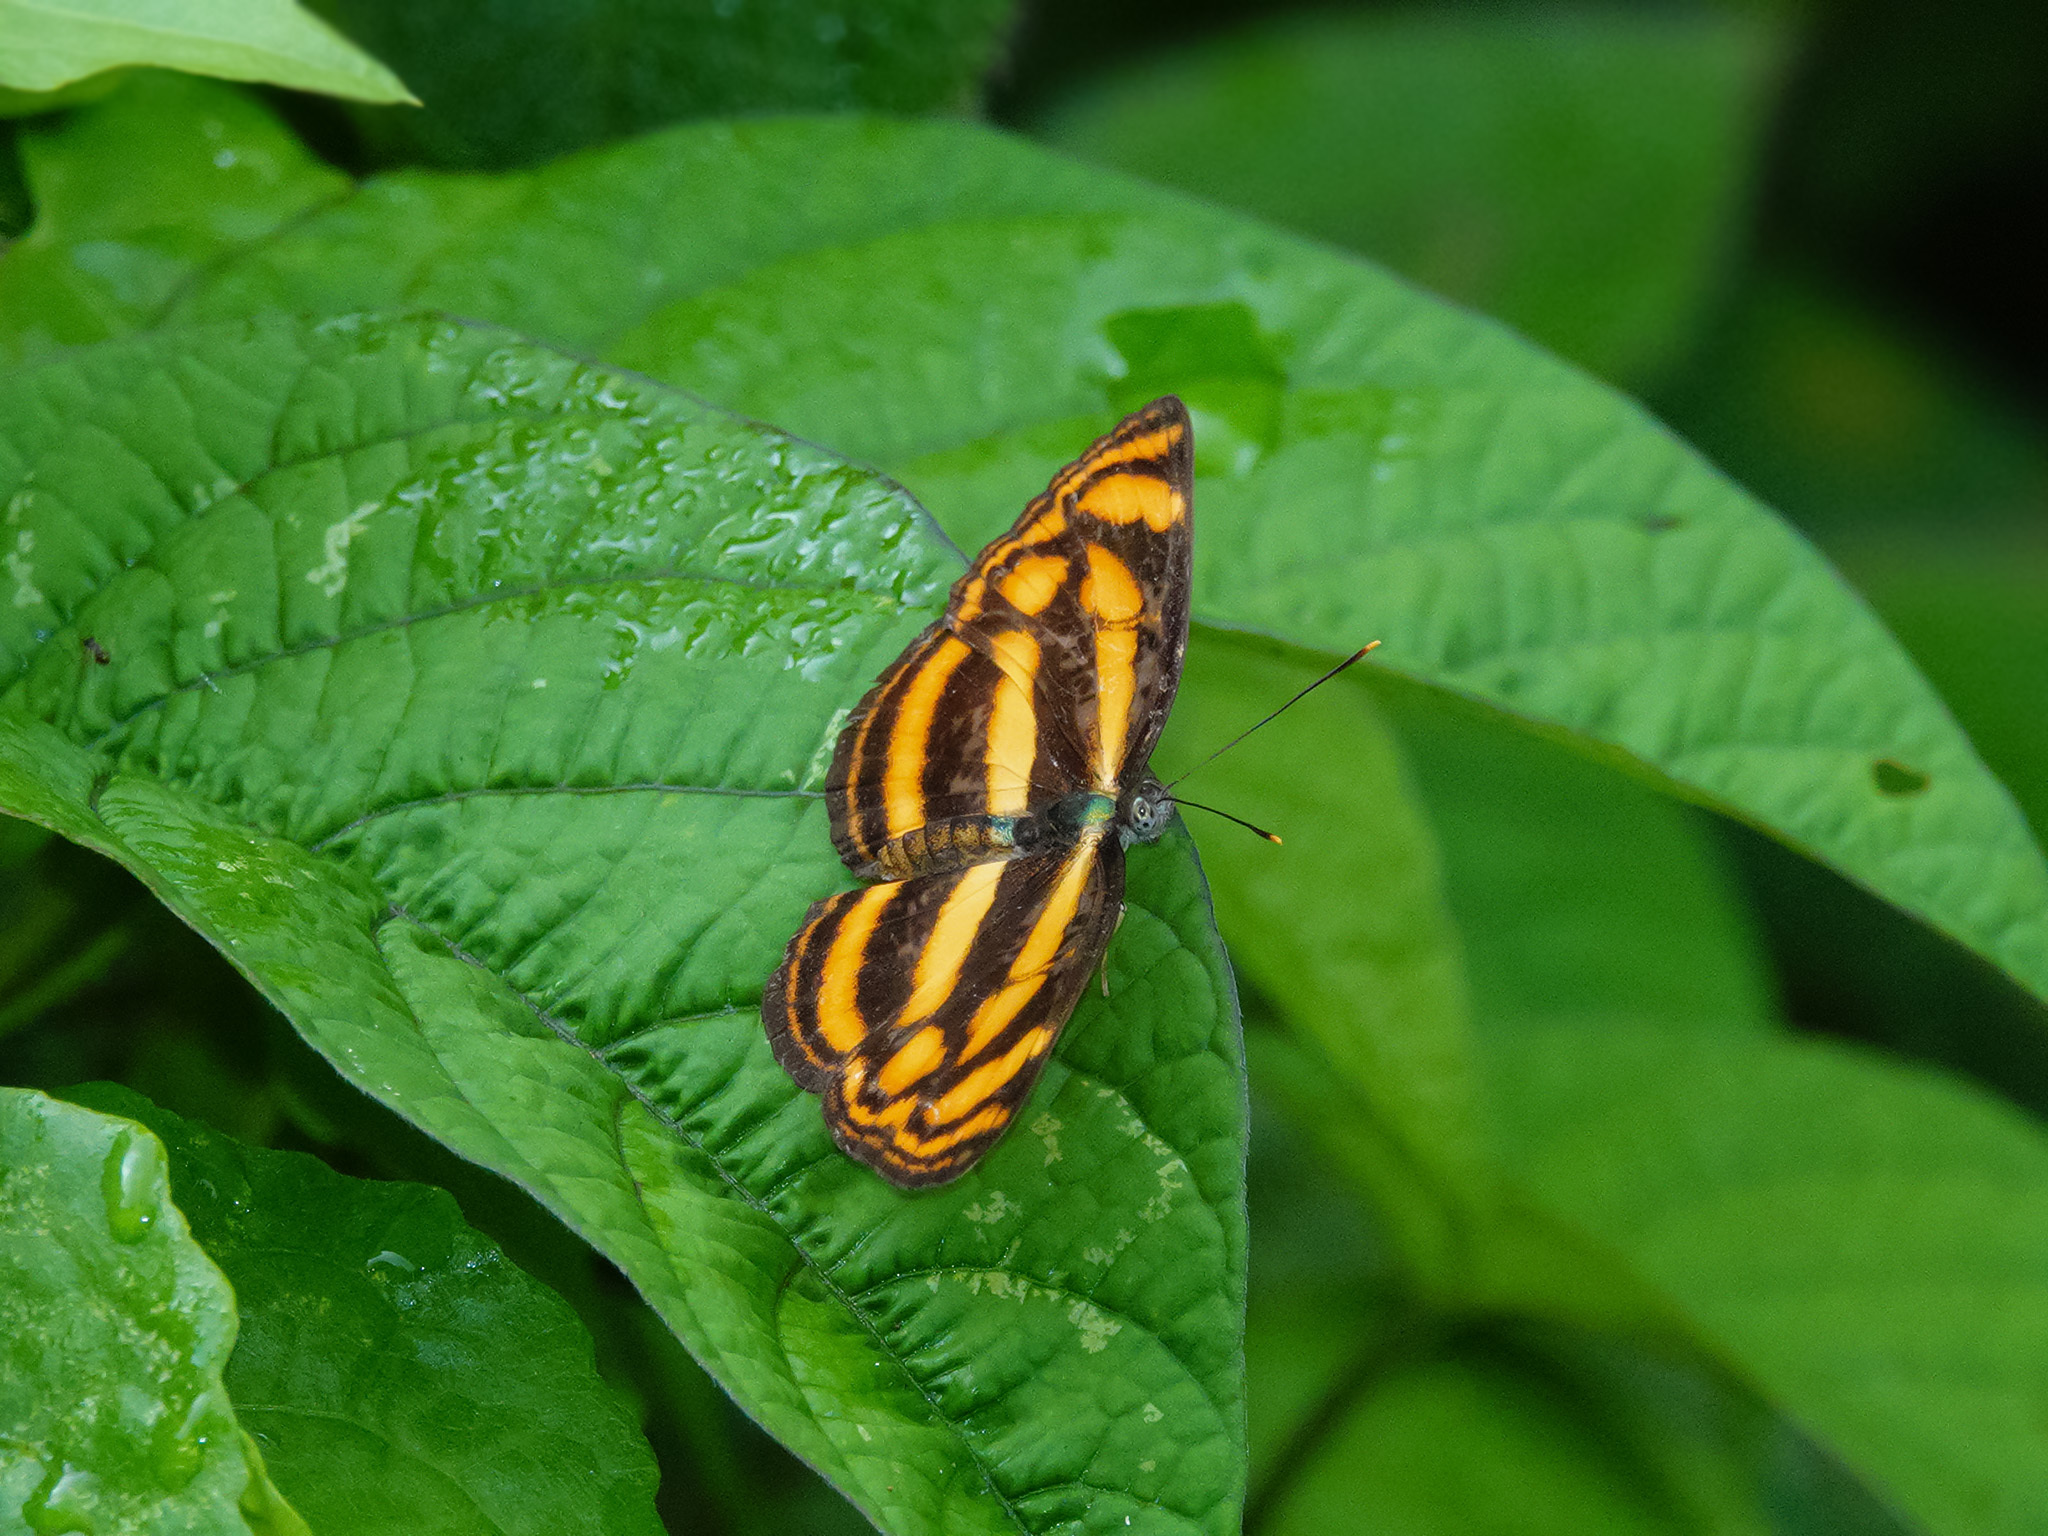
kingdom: Animalia
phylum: Arthropoda
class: Insecta
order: Lepidoptera
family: Nymphalidae
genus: Lasippa
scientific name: Lasippa tiga
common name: Malayan lascar
